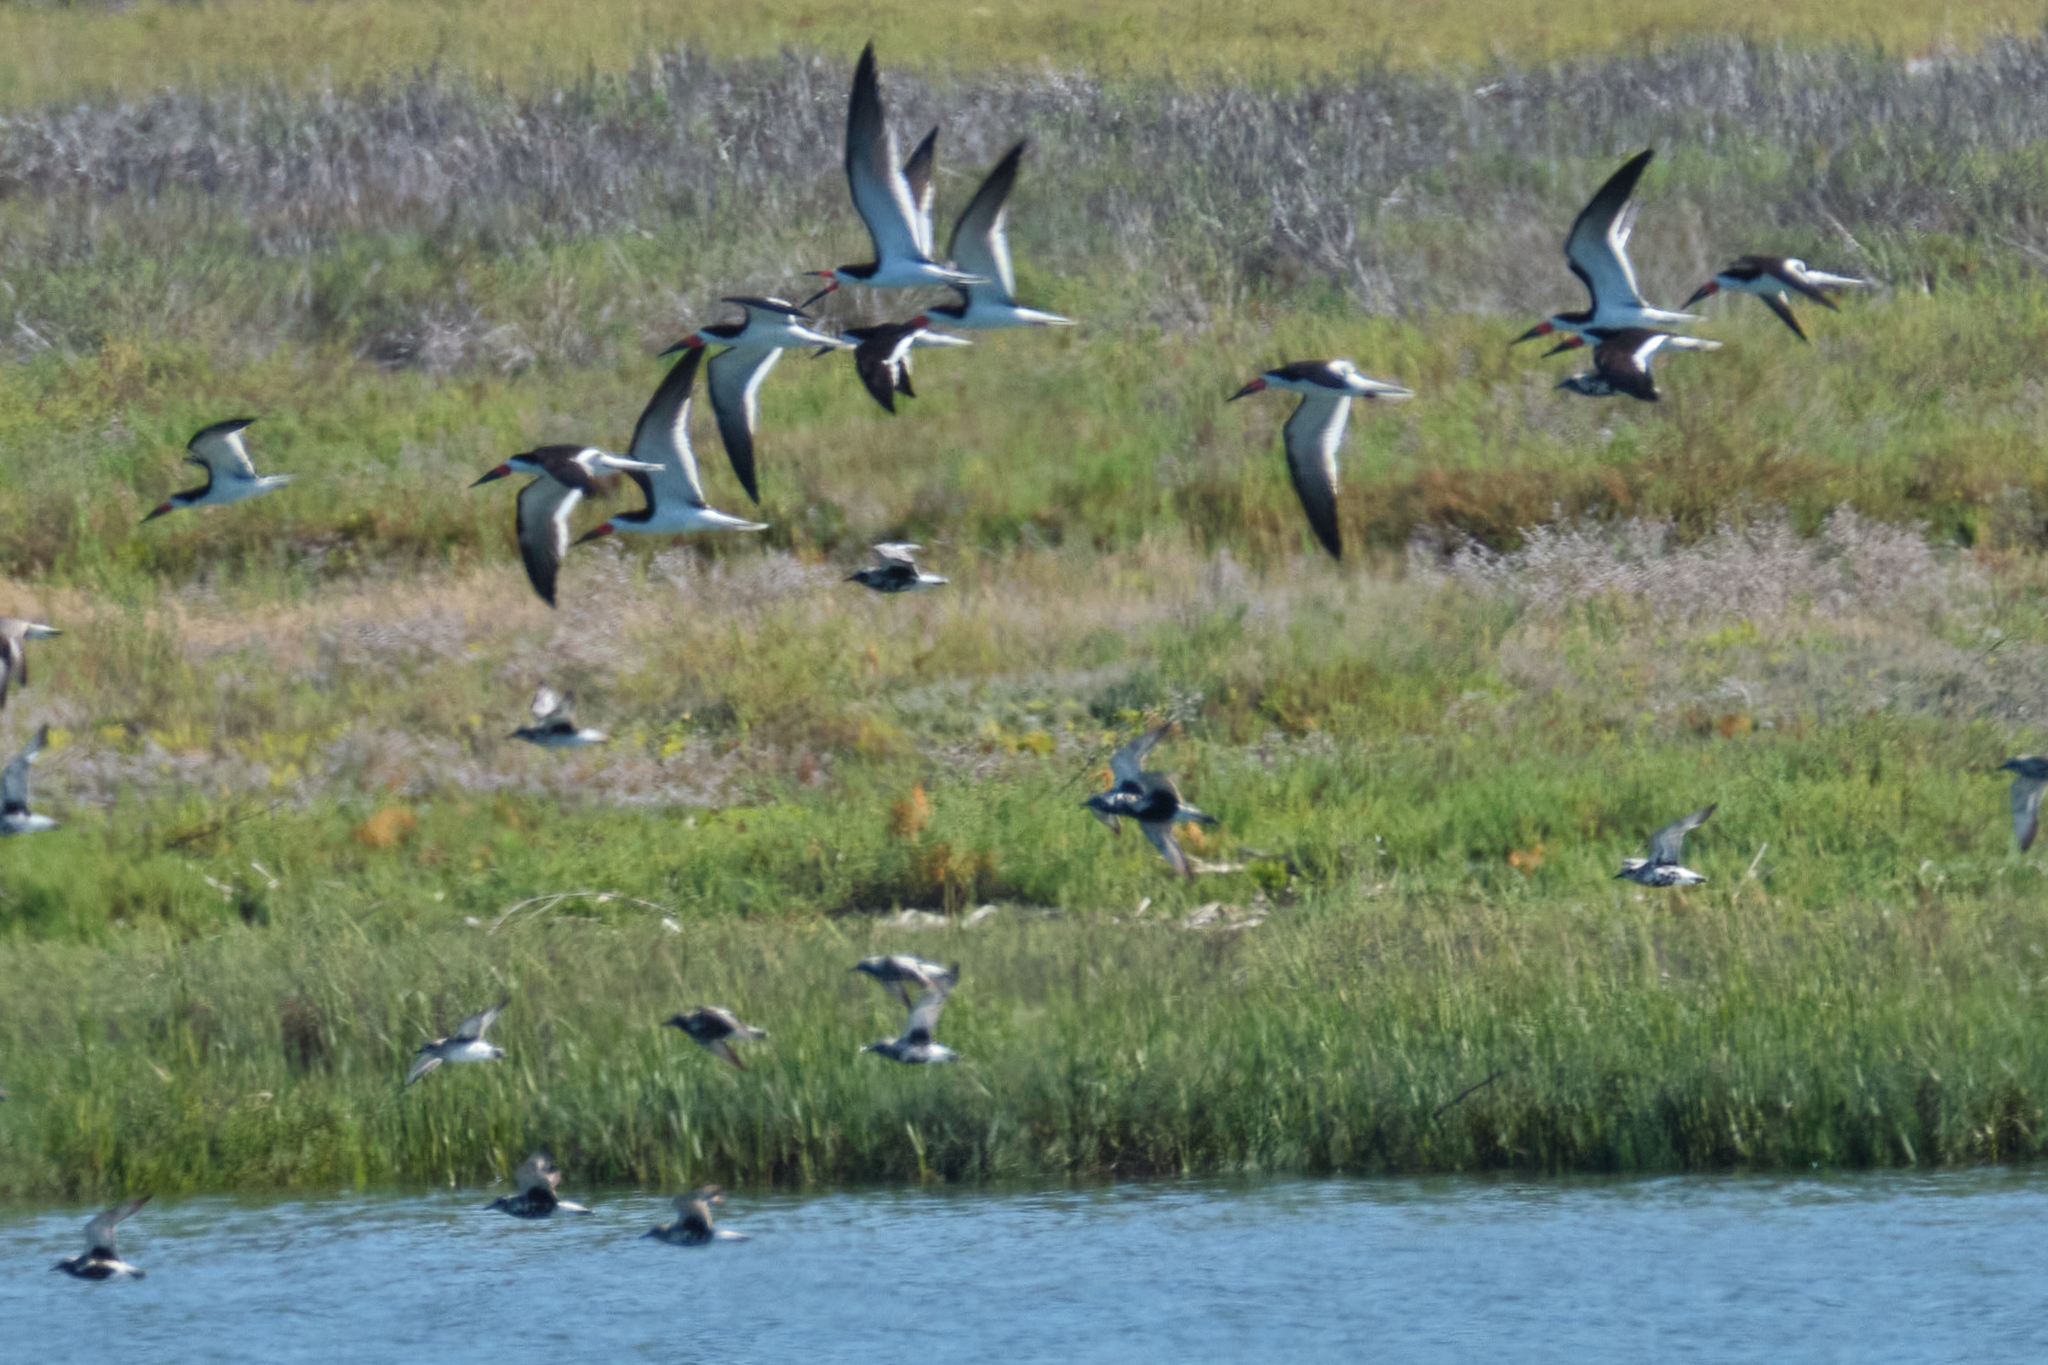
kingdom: Animalia
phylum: Chordata
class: Aves
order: Charadriiformes
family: Laridae
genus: Rynchops
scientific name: Rynchops niger
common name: Black skimmer
